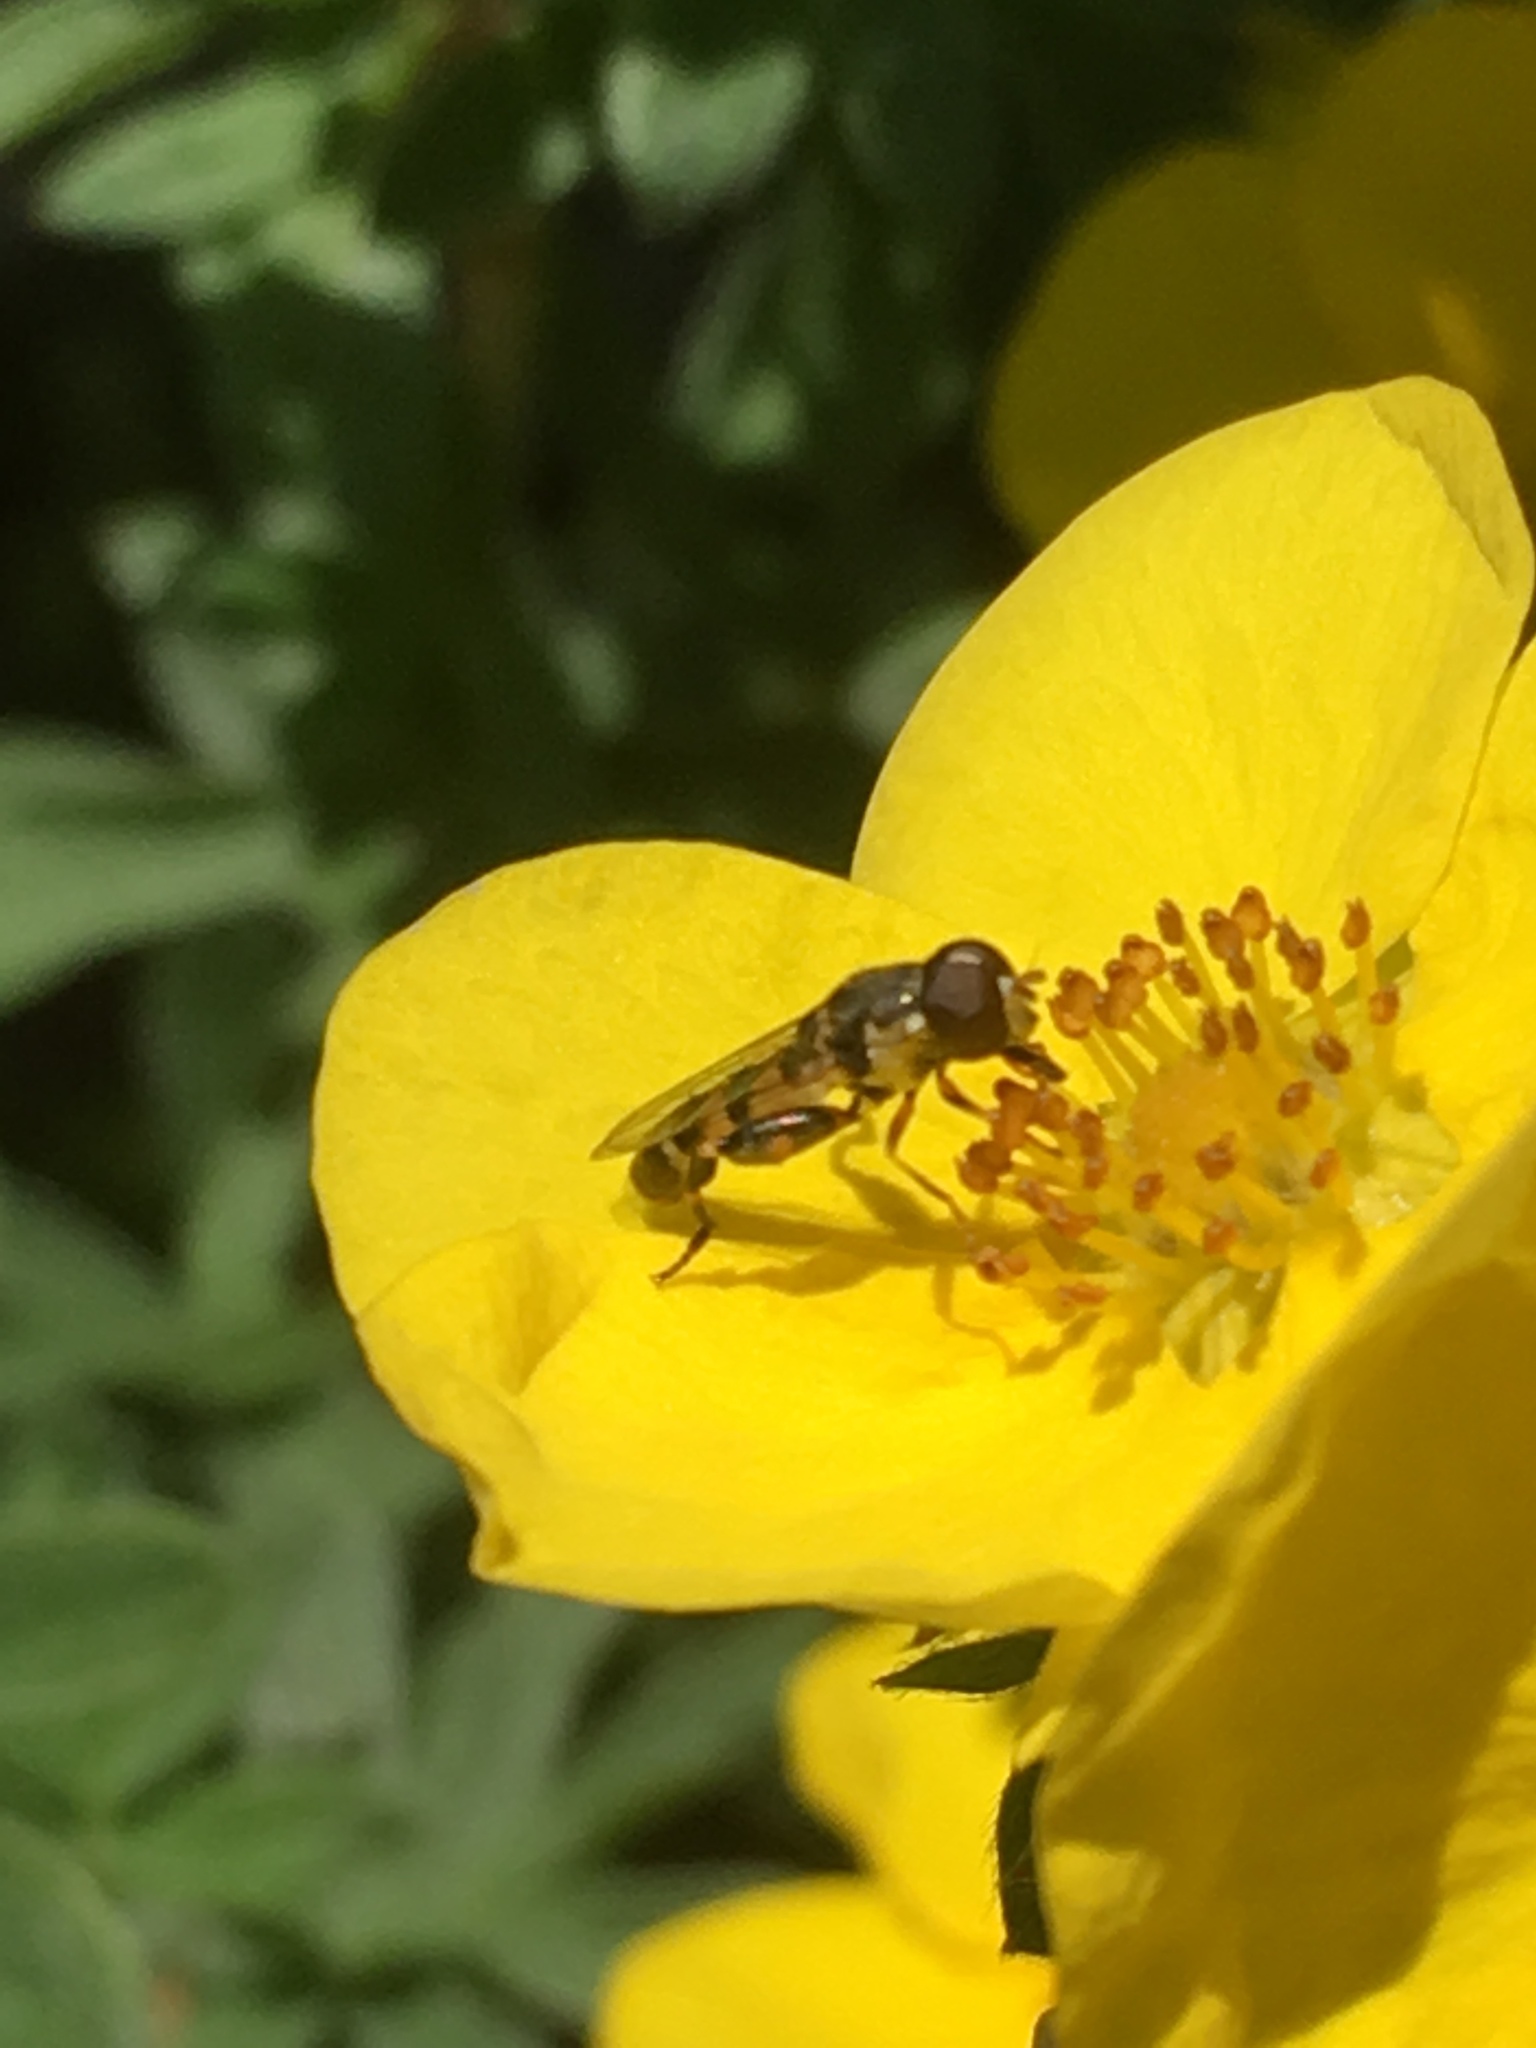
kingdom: Animalia
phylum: Arthropoda
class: Insecta
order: Diptera
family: Syrphidae
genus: Syritta
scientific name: Syritta pipiens
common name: Hover fly
